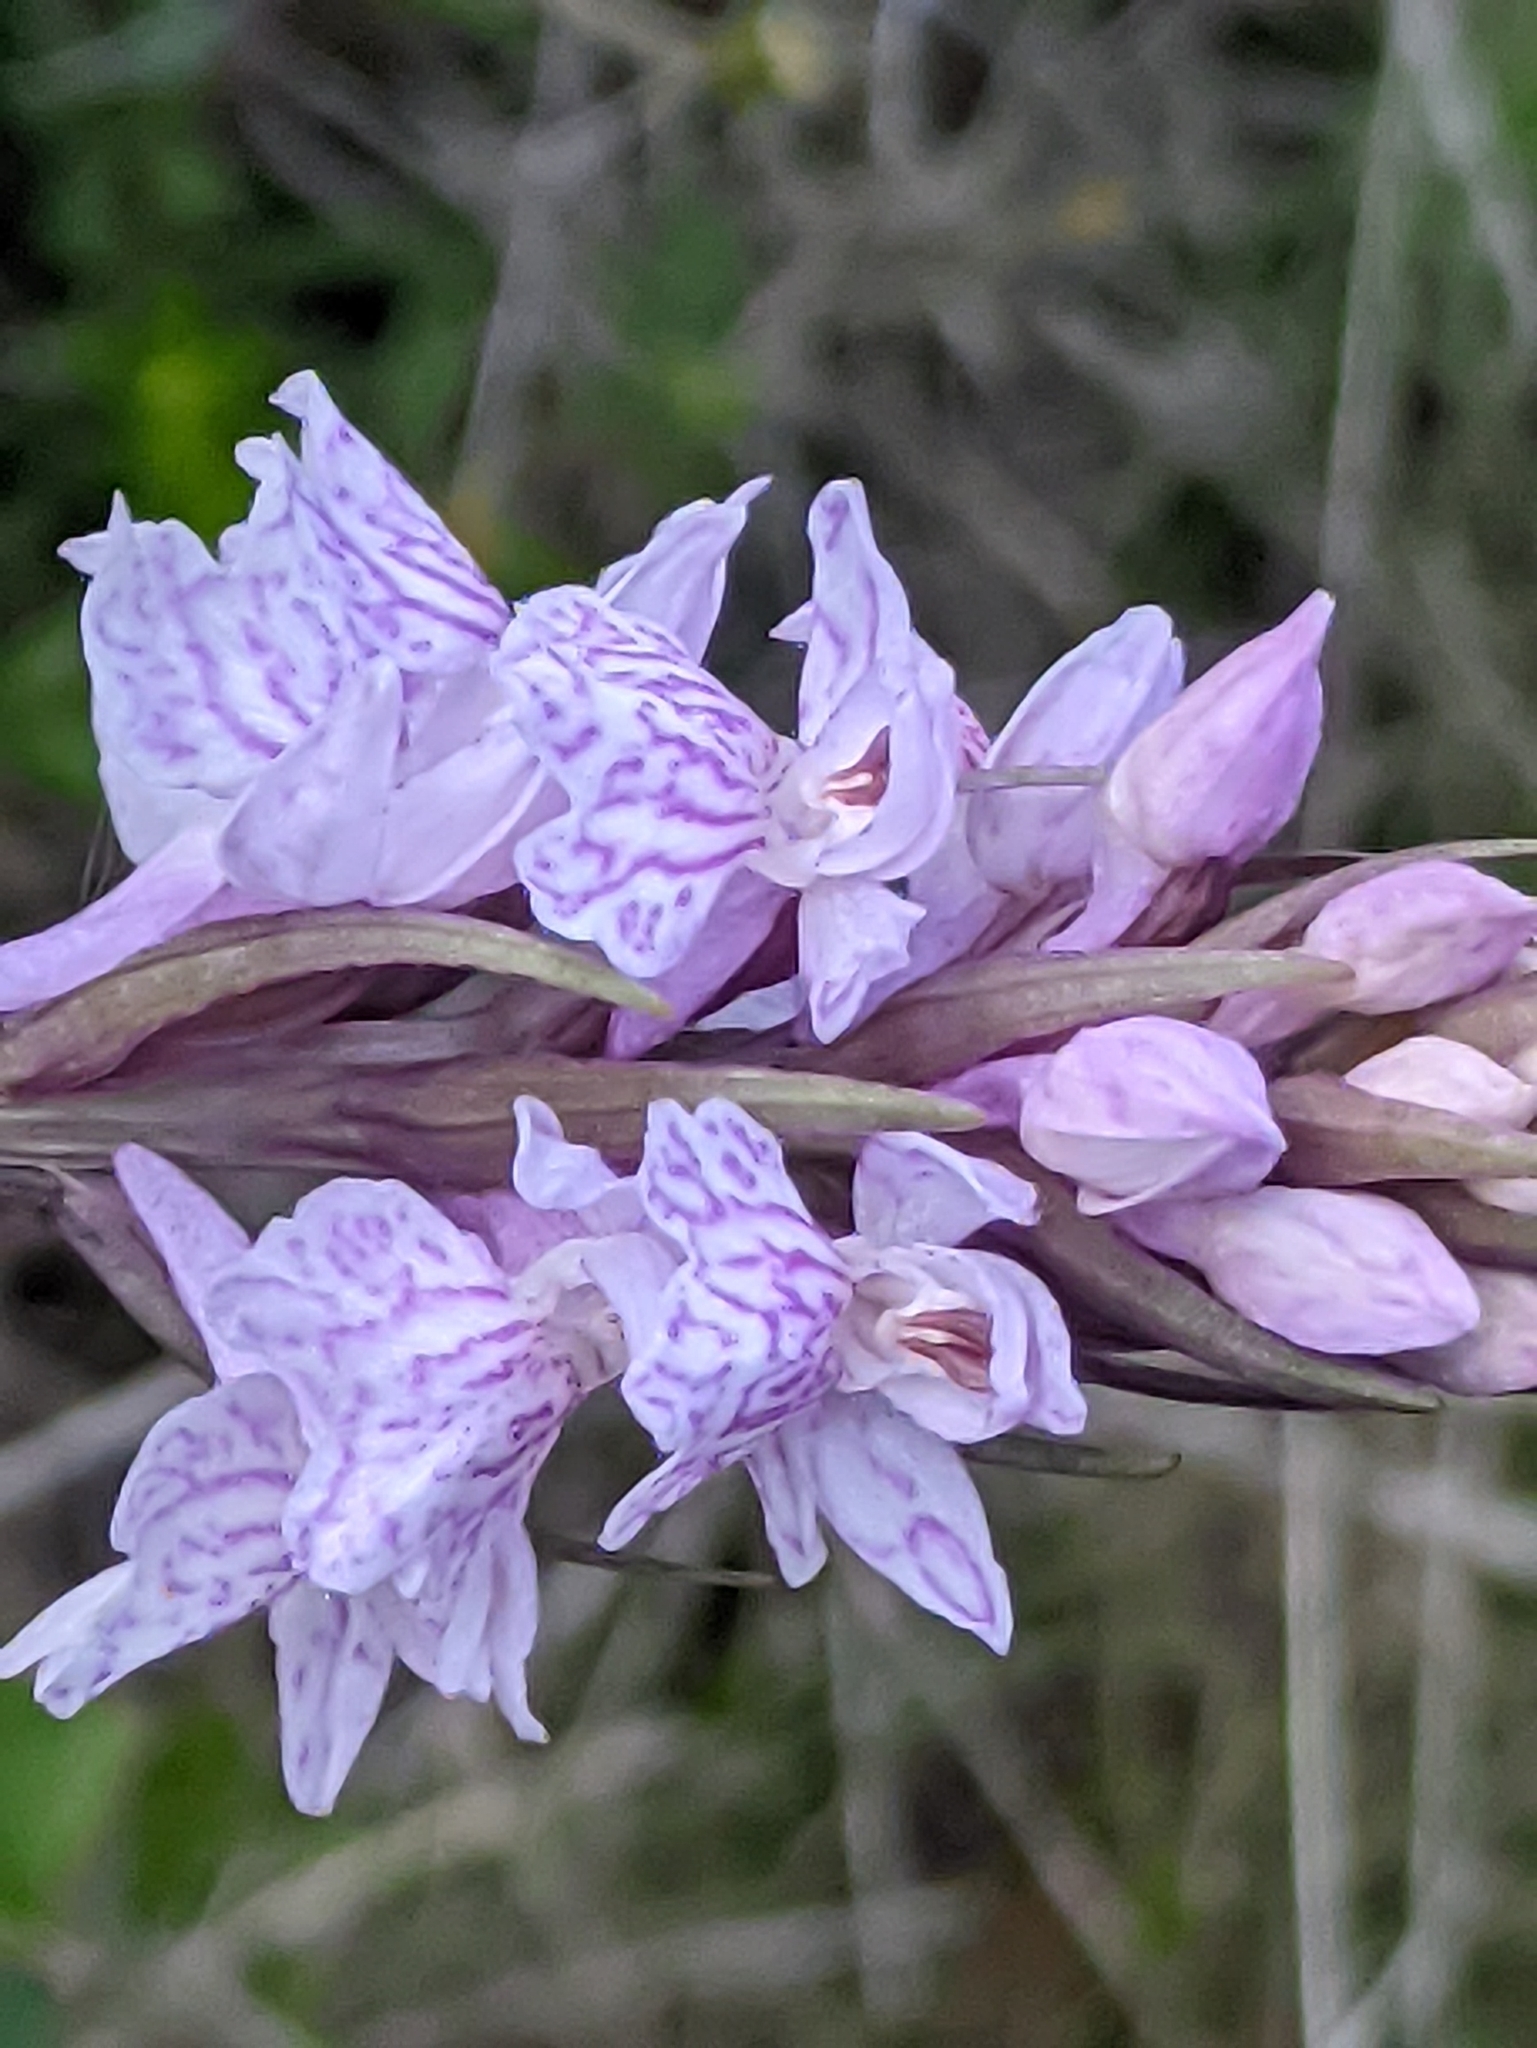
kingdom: Plantae
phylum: Tracheophyta
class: Liliopsida
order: Asparagales
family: Orchidaceae
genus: Dactylorhiza
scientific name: Dactylorhiza maculata
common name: Heath spotted-orchid
